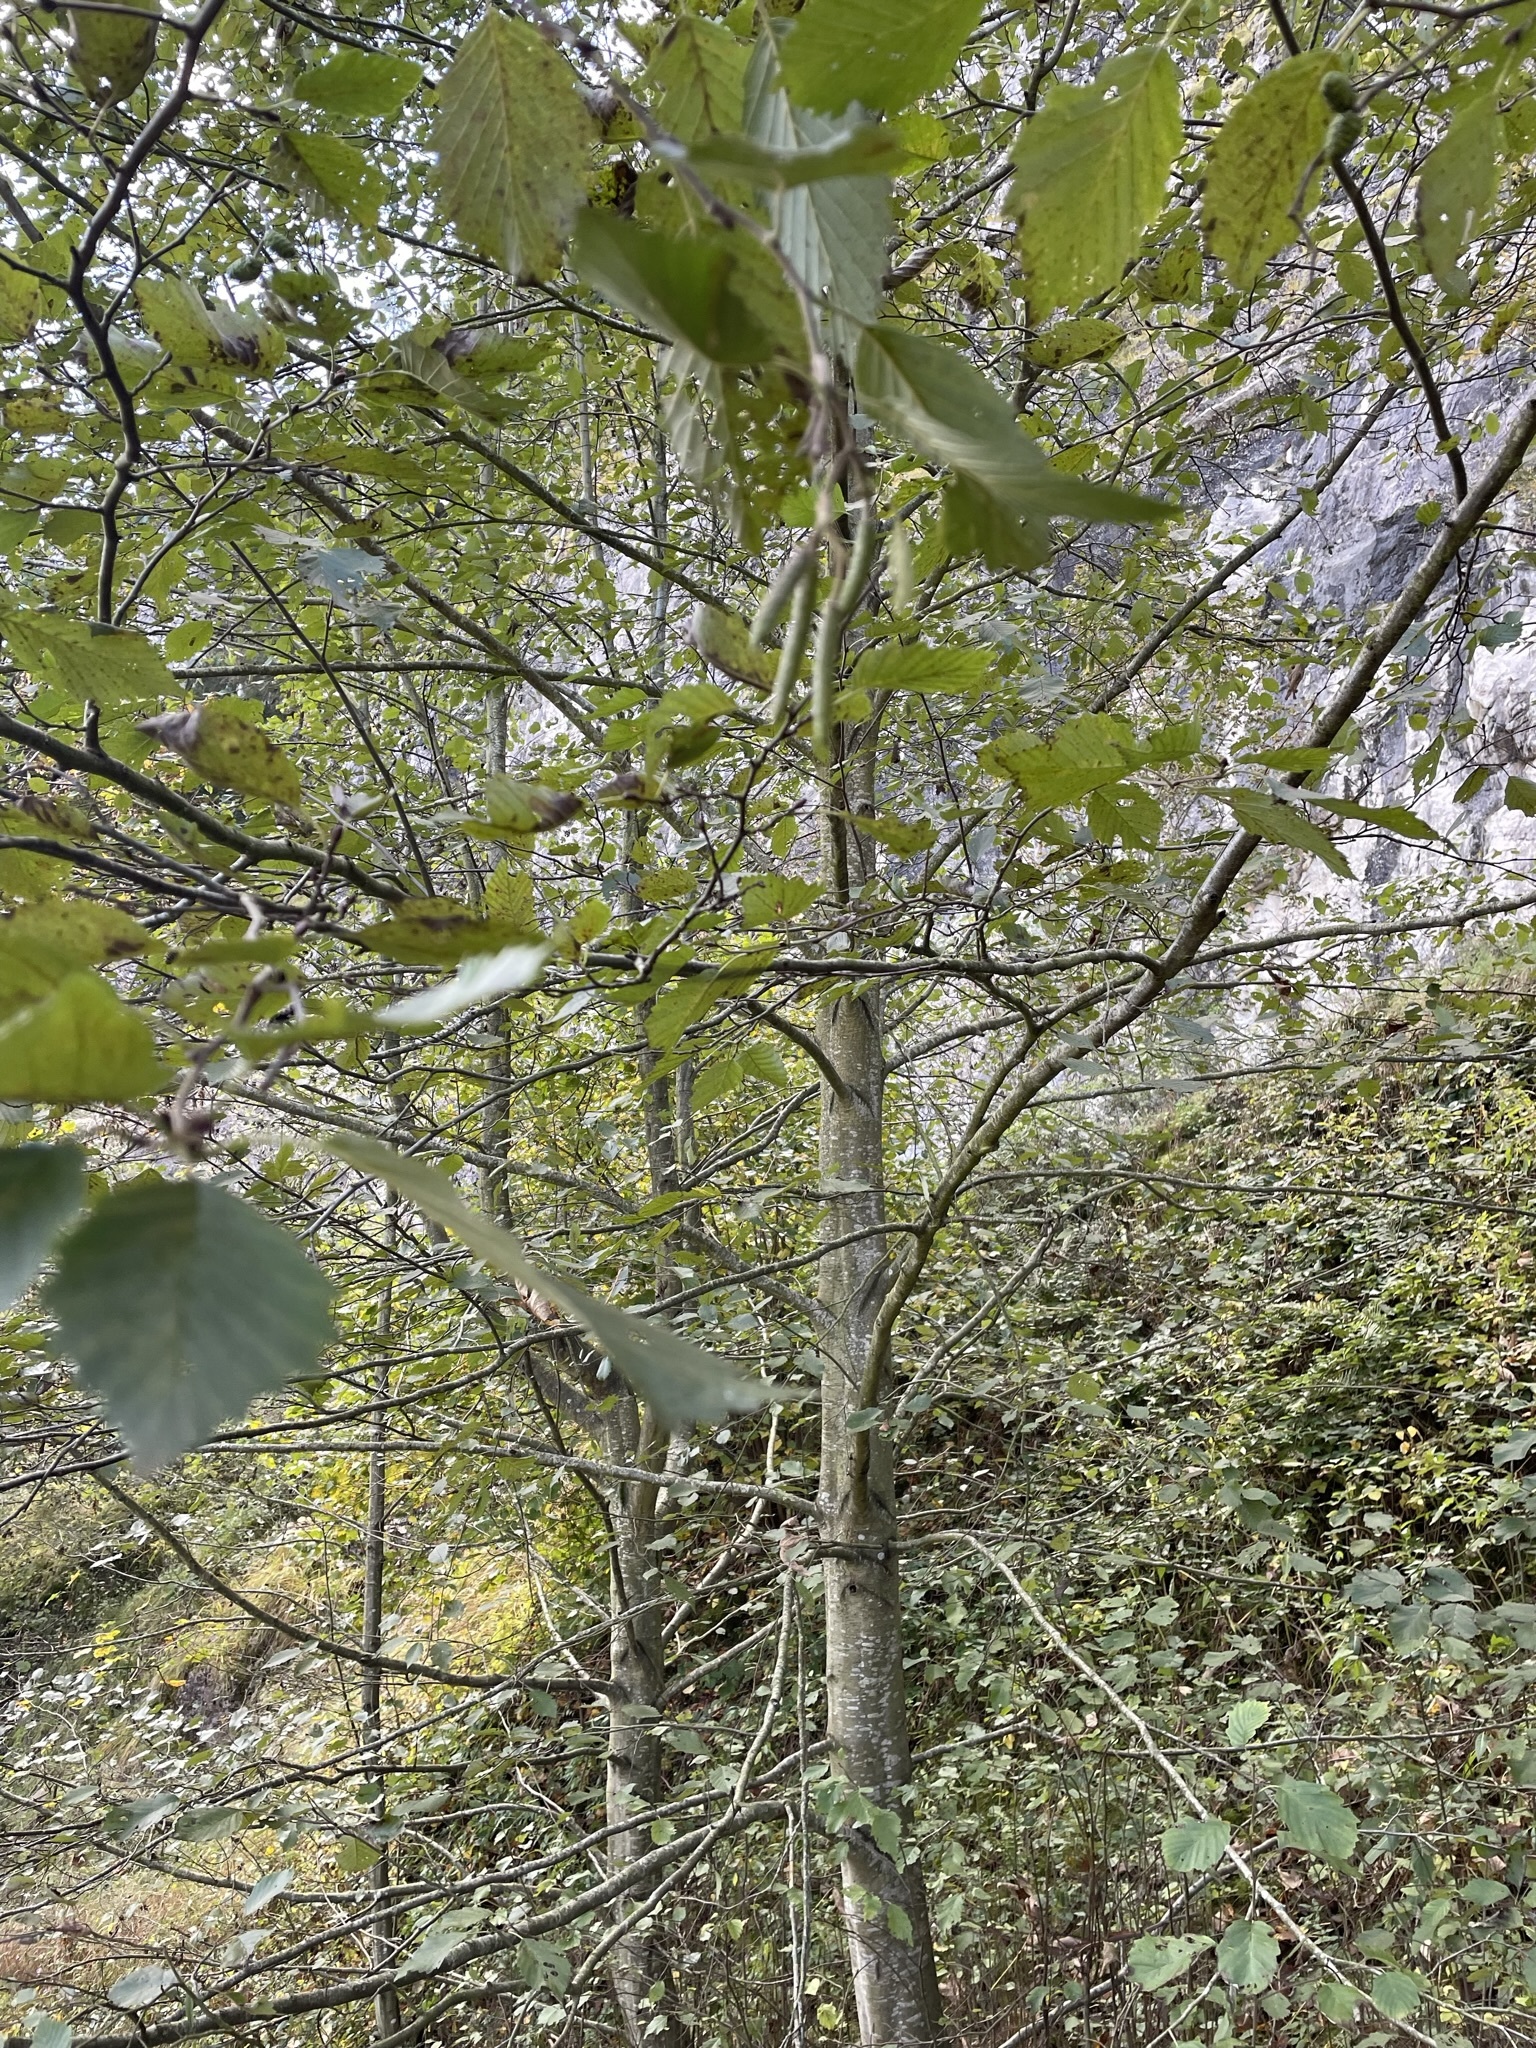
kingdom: Plantae
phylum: Tracheophyta
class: Magnoliopsida
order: Fagales
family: Betulaceae
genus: Alnus
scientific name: Alnus incana
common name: Grey alder
